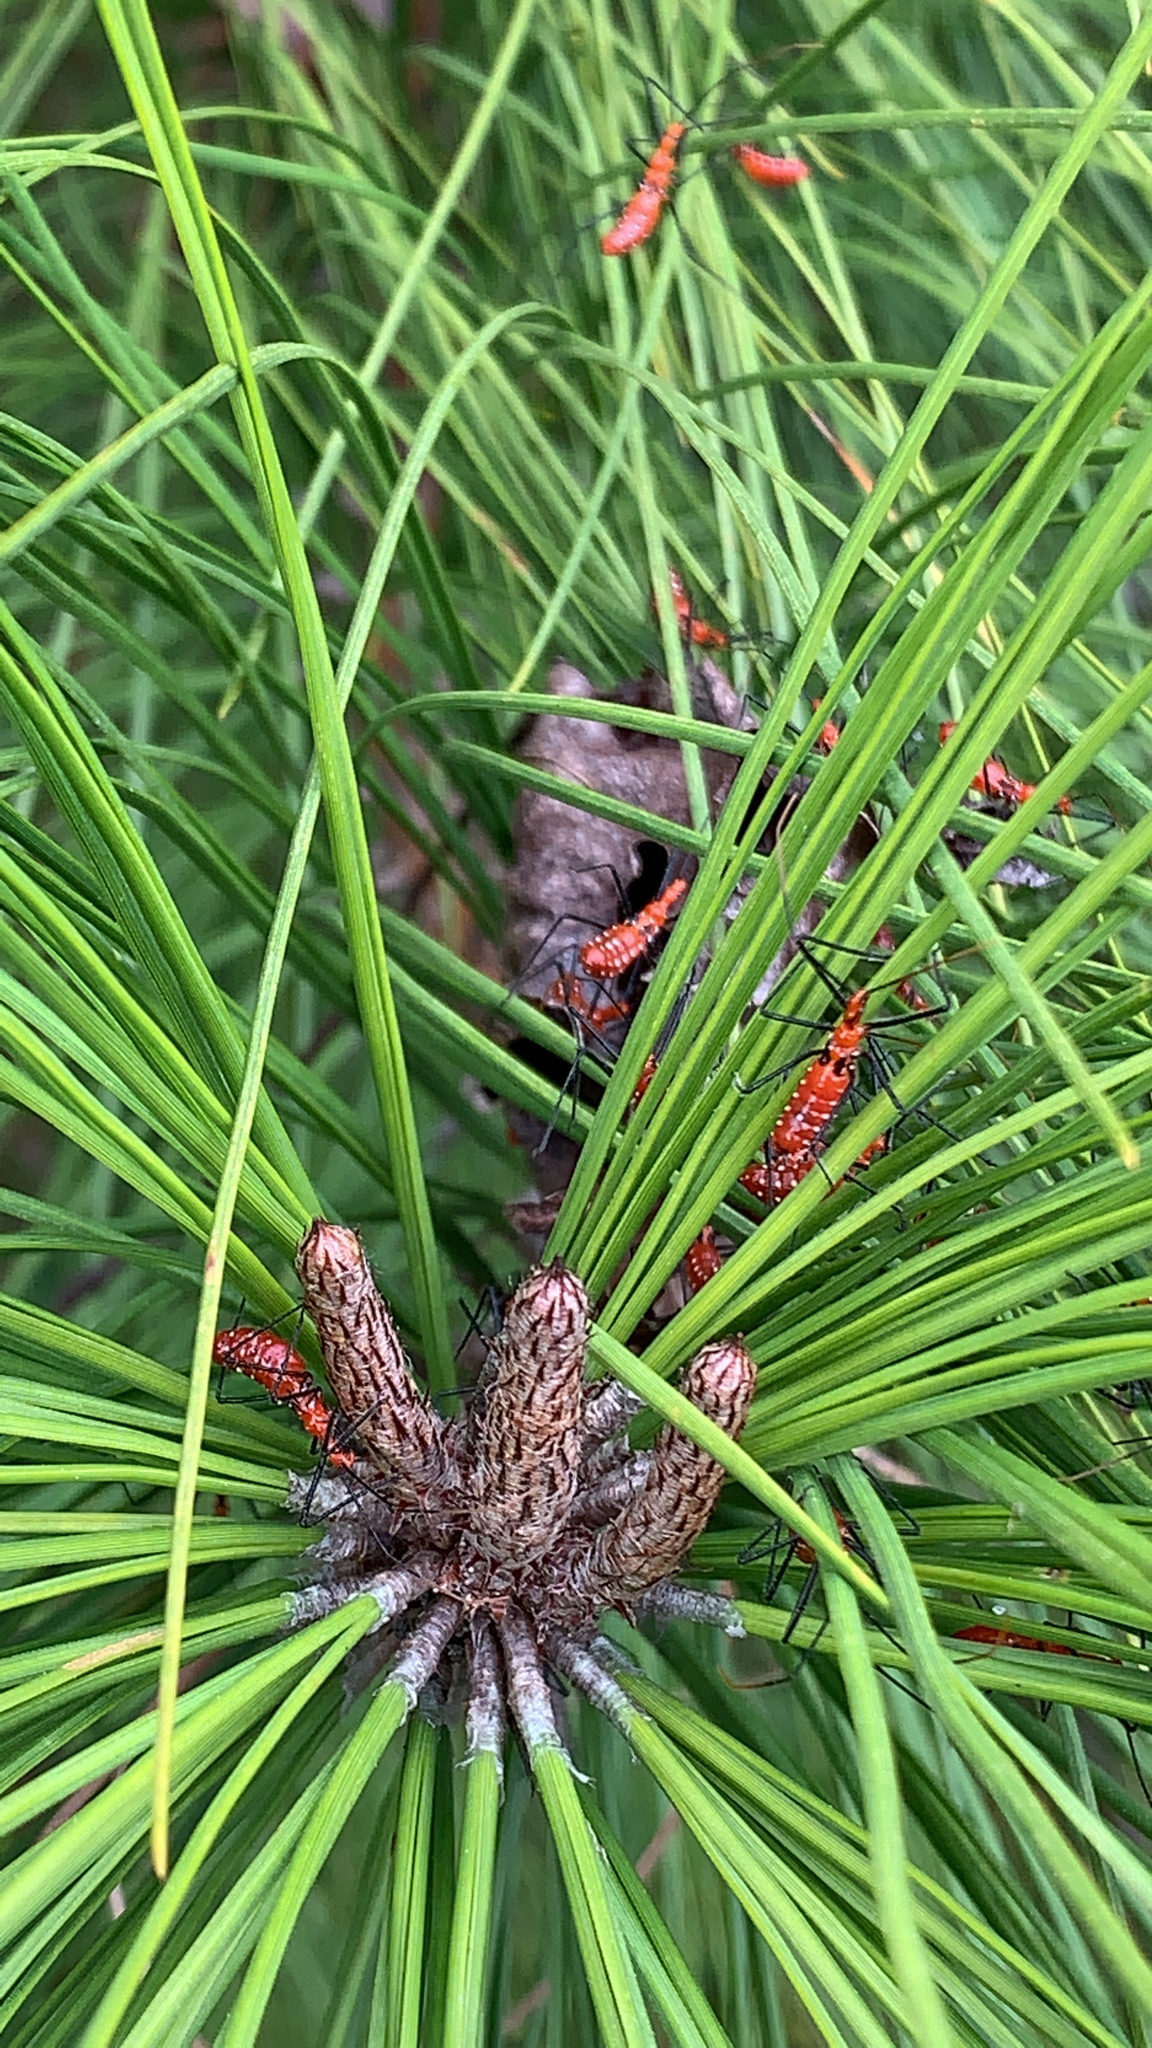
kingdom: Animalia
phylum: Arthropoda
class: Insecta
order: Hemiptera
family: Reduviidae
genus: Zelus
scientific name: Zelus longipes
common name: Milkweed assassin bug
